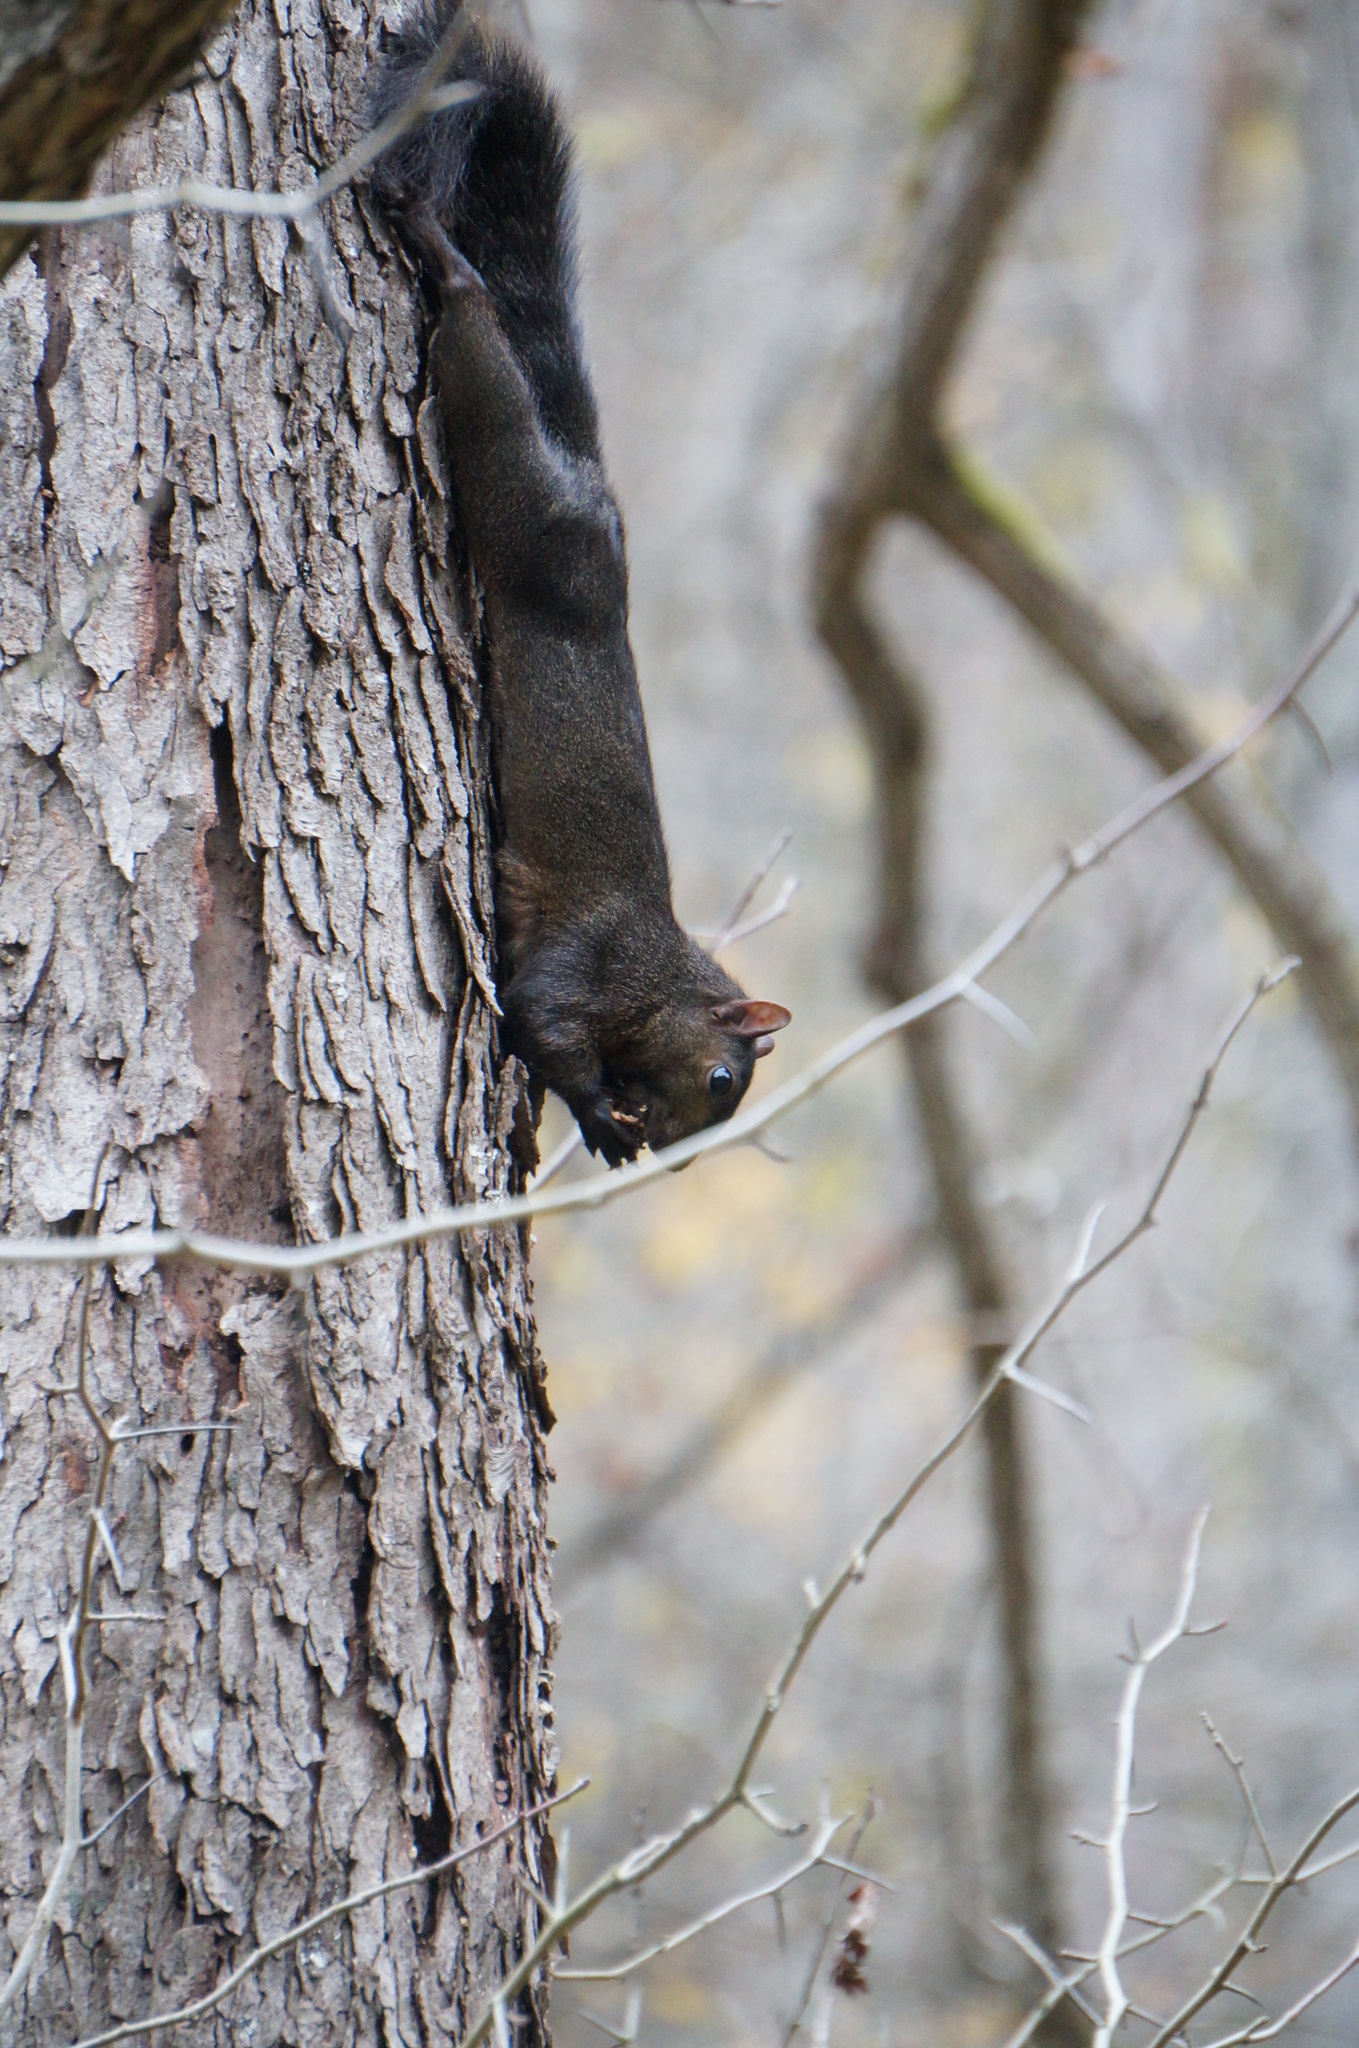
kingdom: Animalia
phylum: Chordata
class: Mammalia
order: Rodentia
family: Sciuridae
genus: Sciurus
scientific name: Sciurus carolinensis
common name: Eastern gray squirrel
